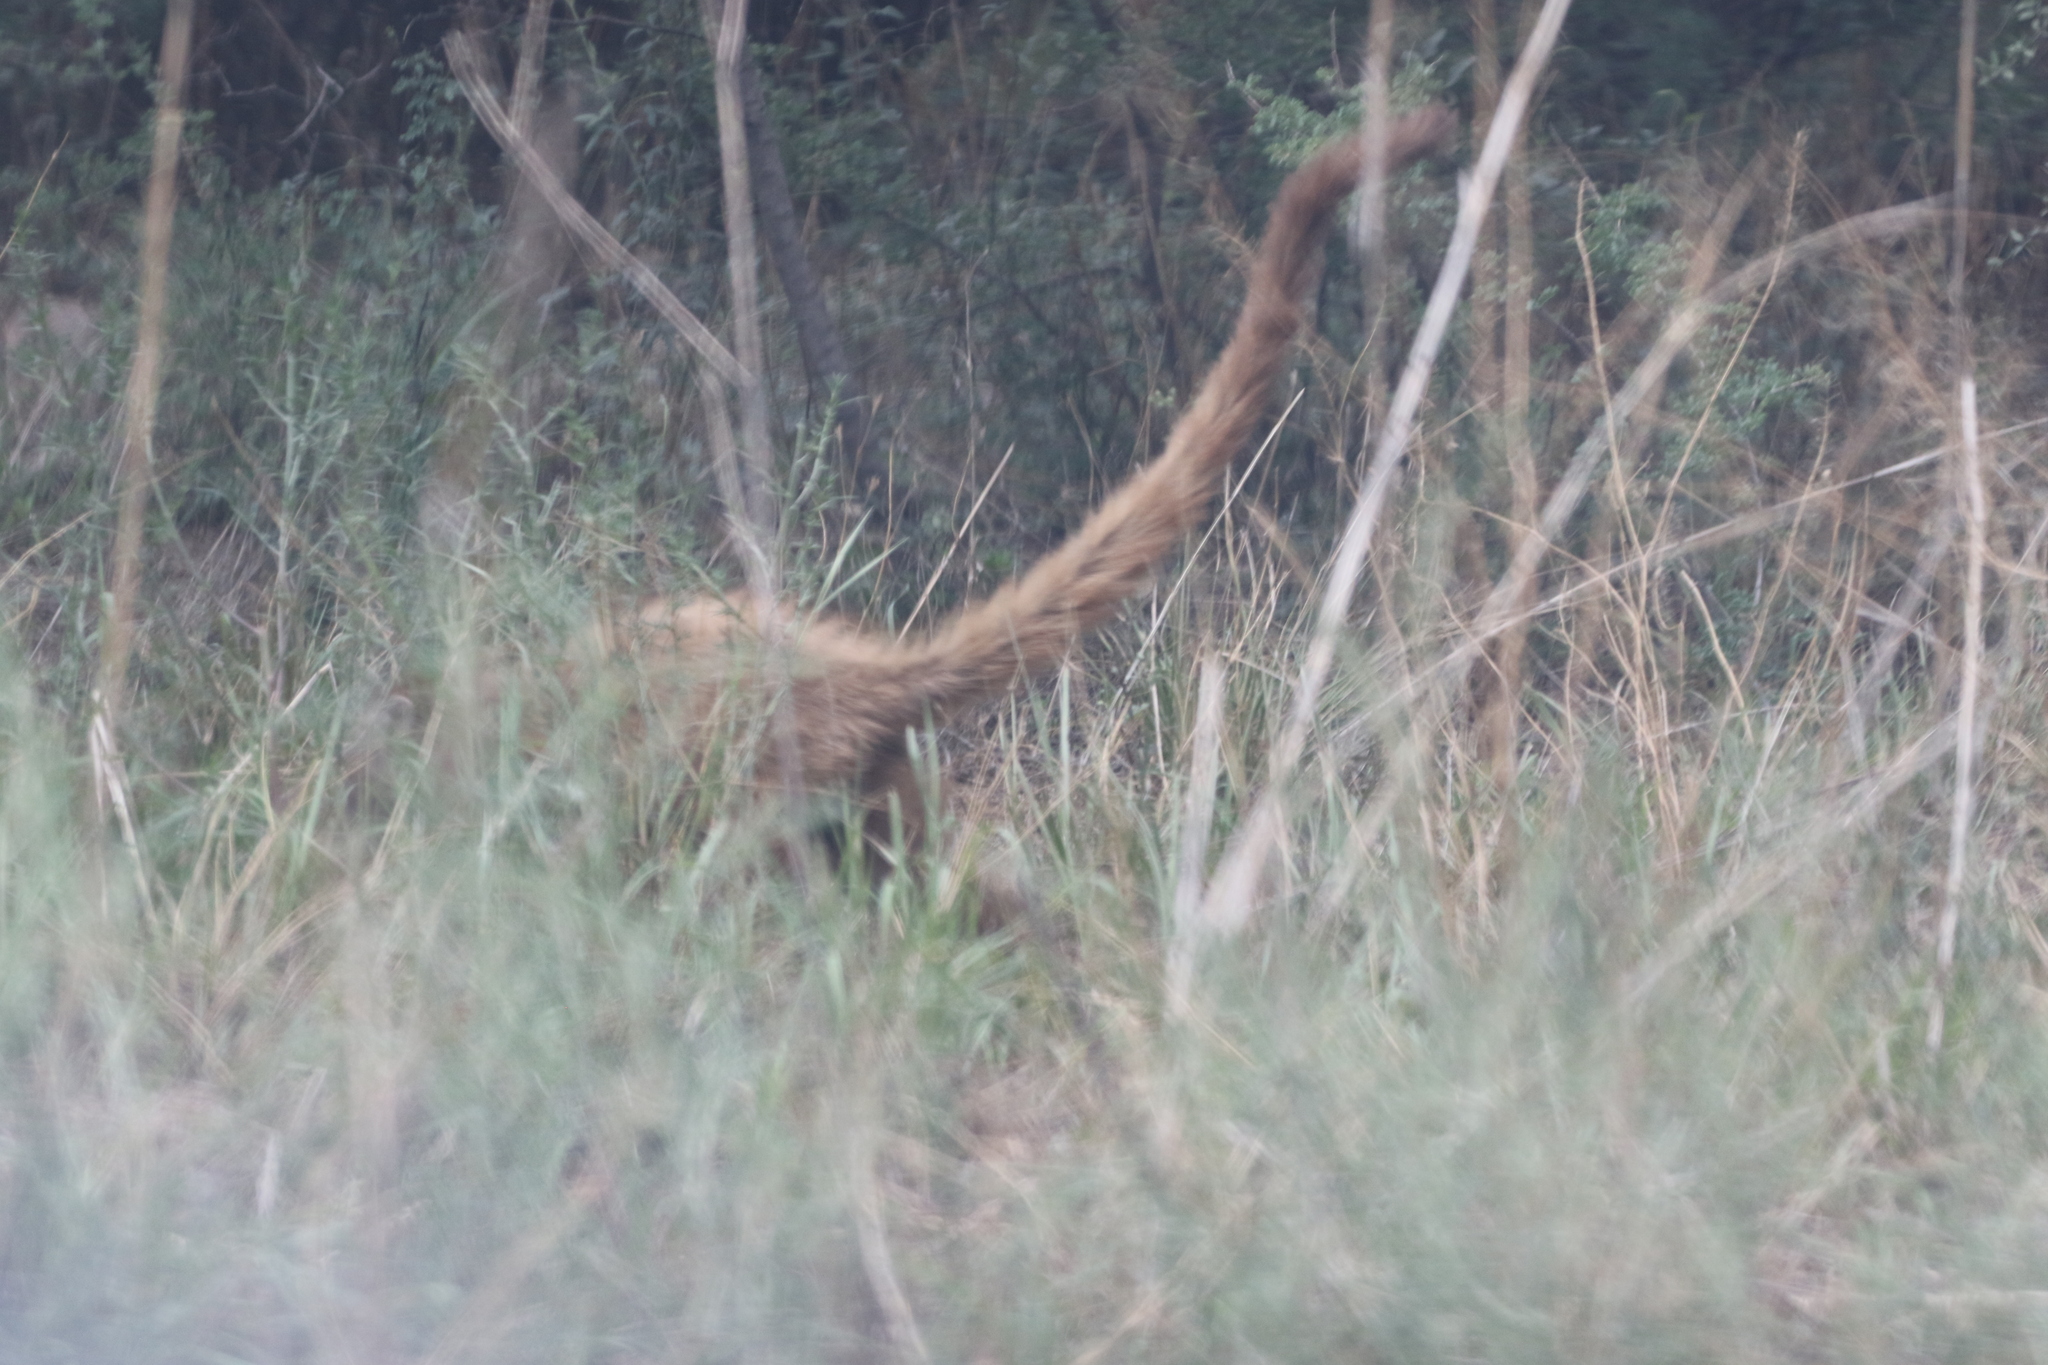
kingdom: Animalia
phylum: Chordata
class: Mammalia
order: Carnivora
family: Procyonidae
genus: Nasua
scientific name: Nasua narica
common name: White-nosed coati
